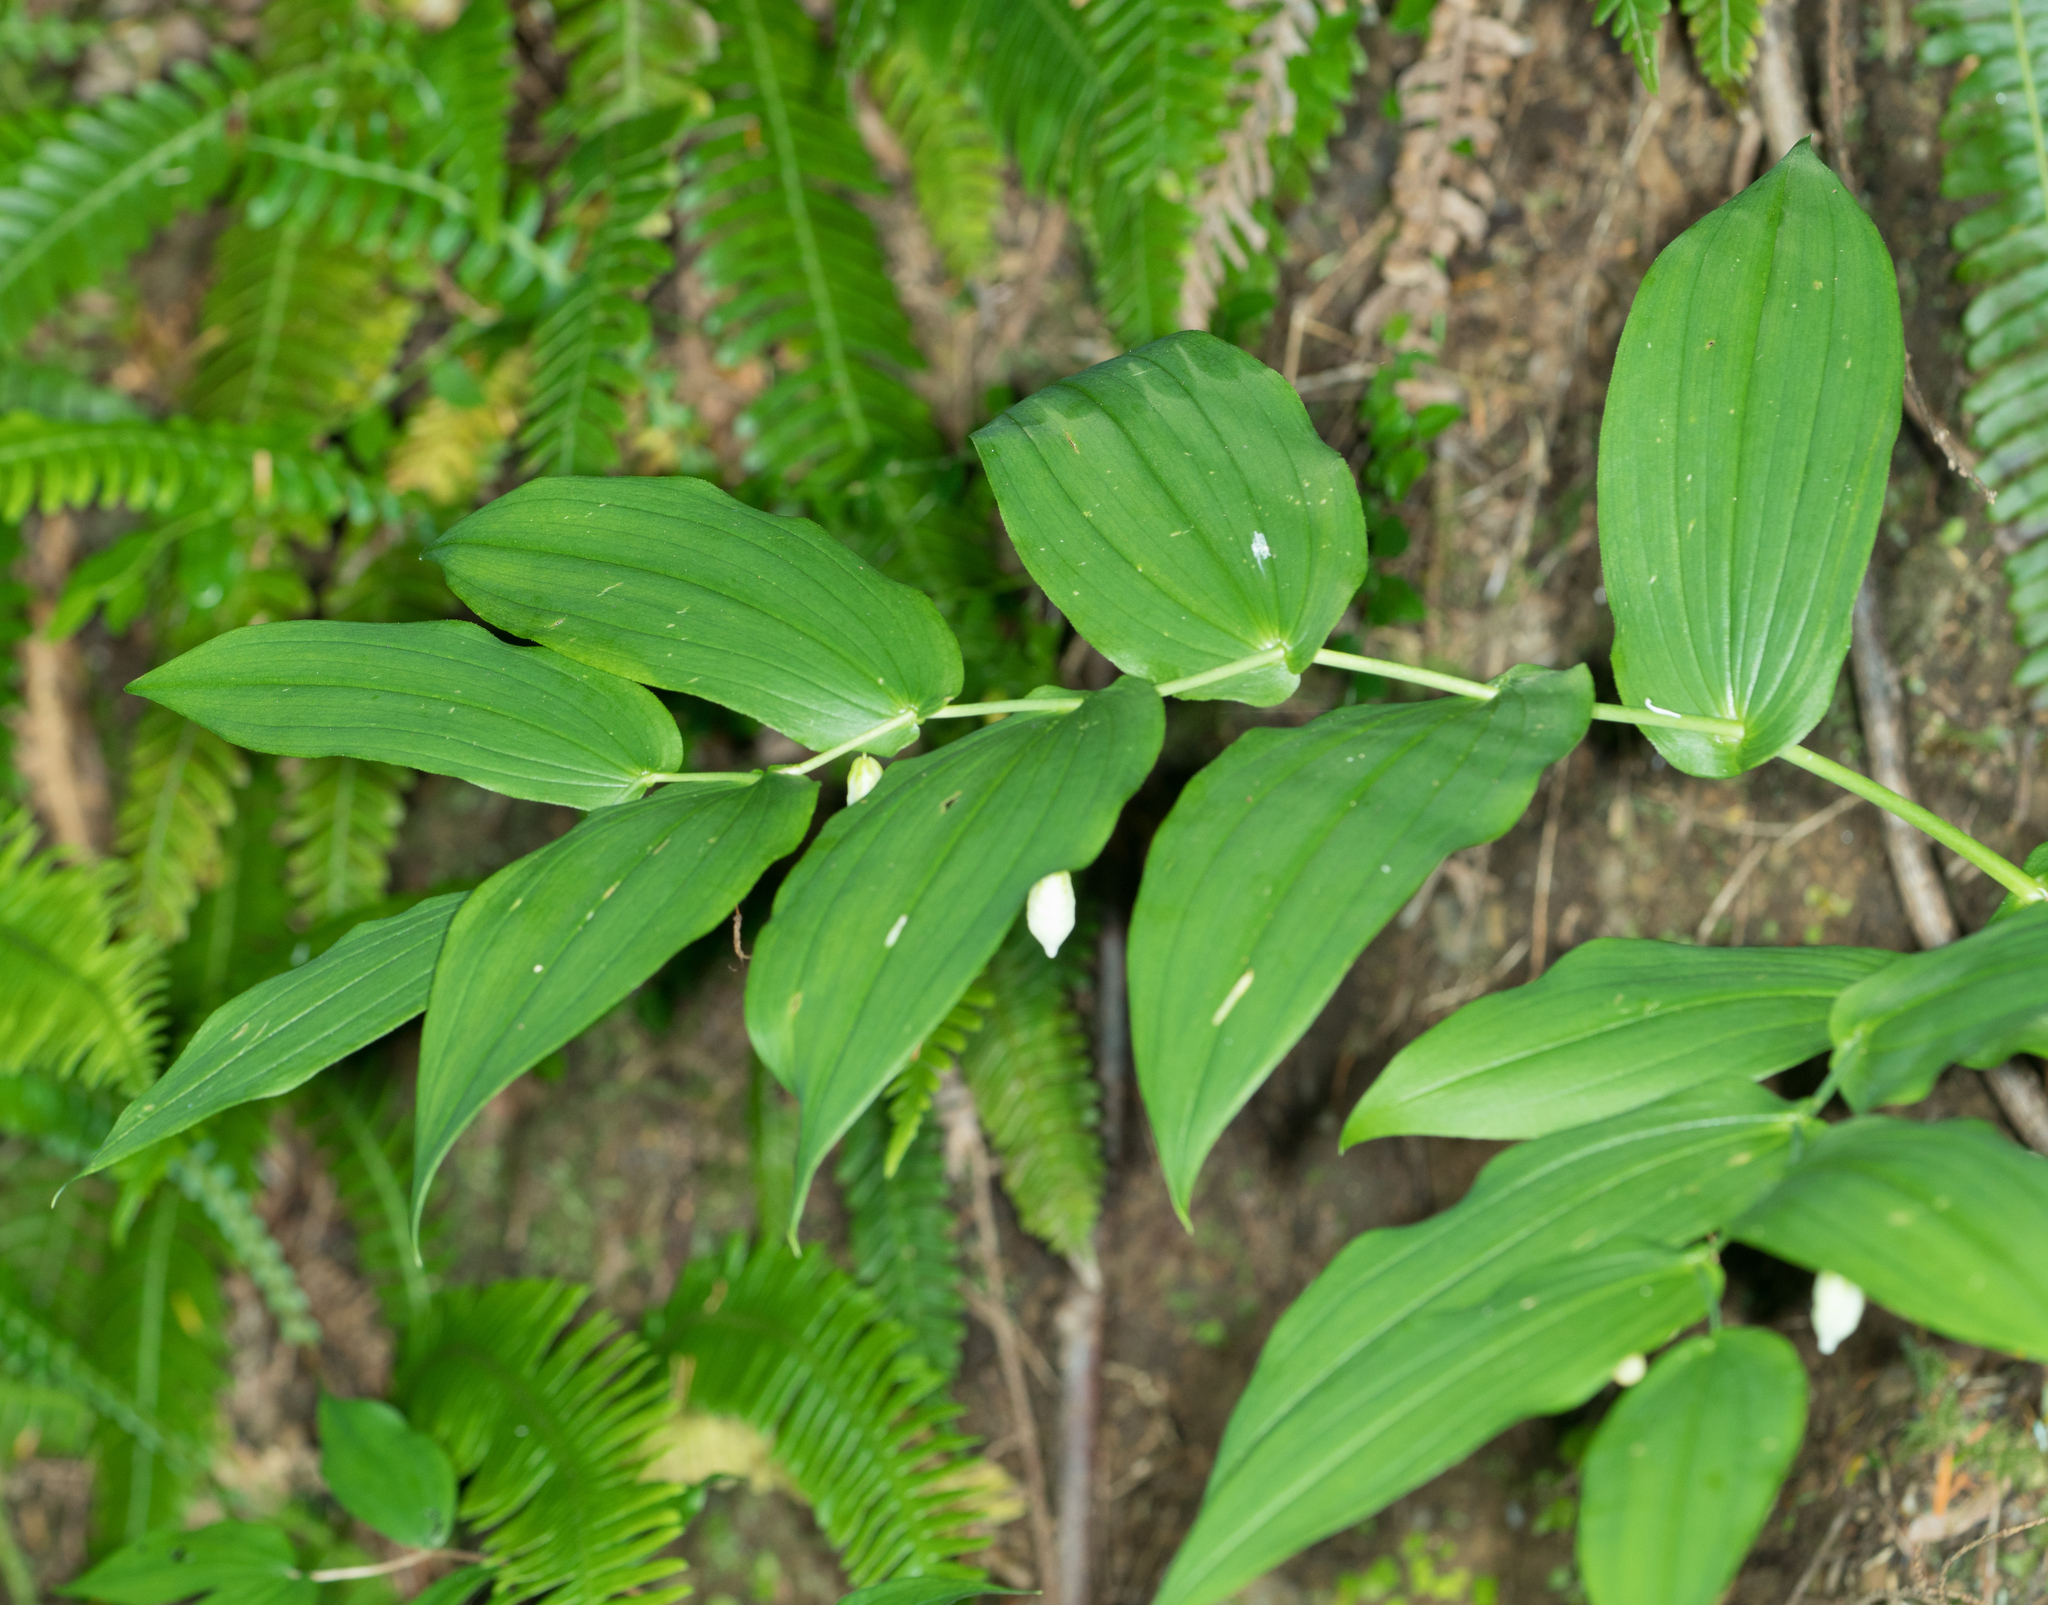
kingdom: Plantae
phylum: Tracheophyta
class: Liliopsida
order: Liliales
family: Liliaceae
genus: Streptopus
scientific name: Streptopus amplexifolius
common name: Clasp twisted stalk
